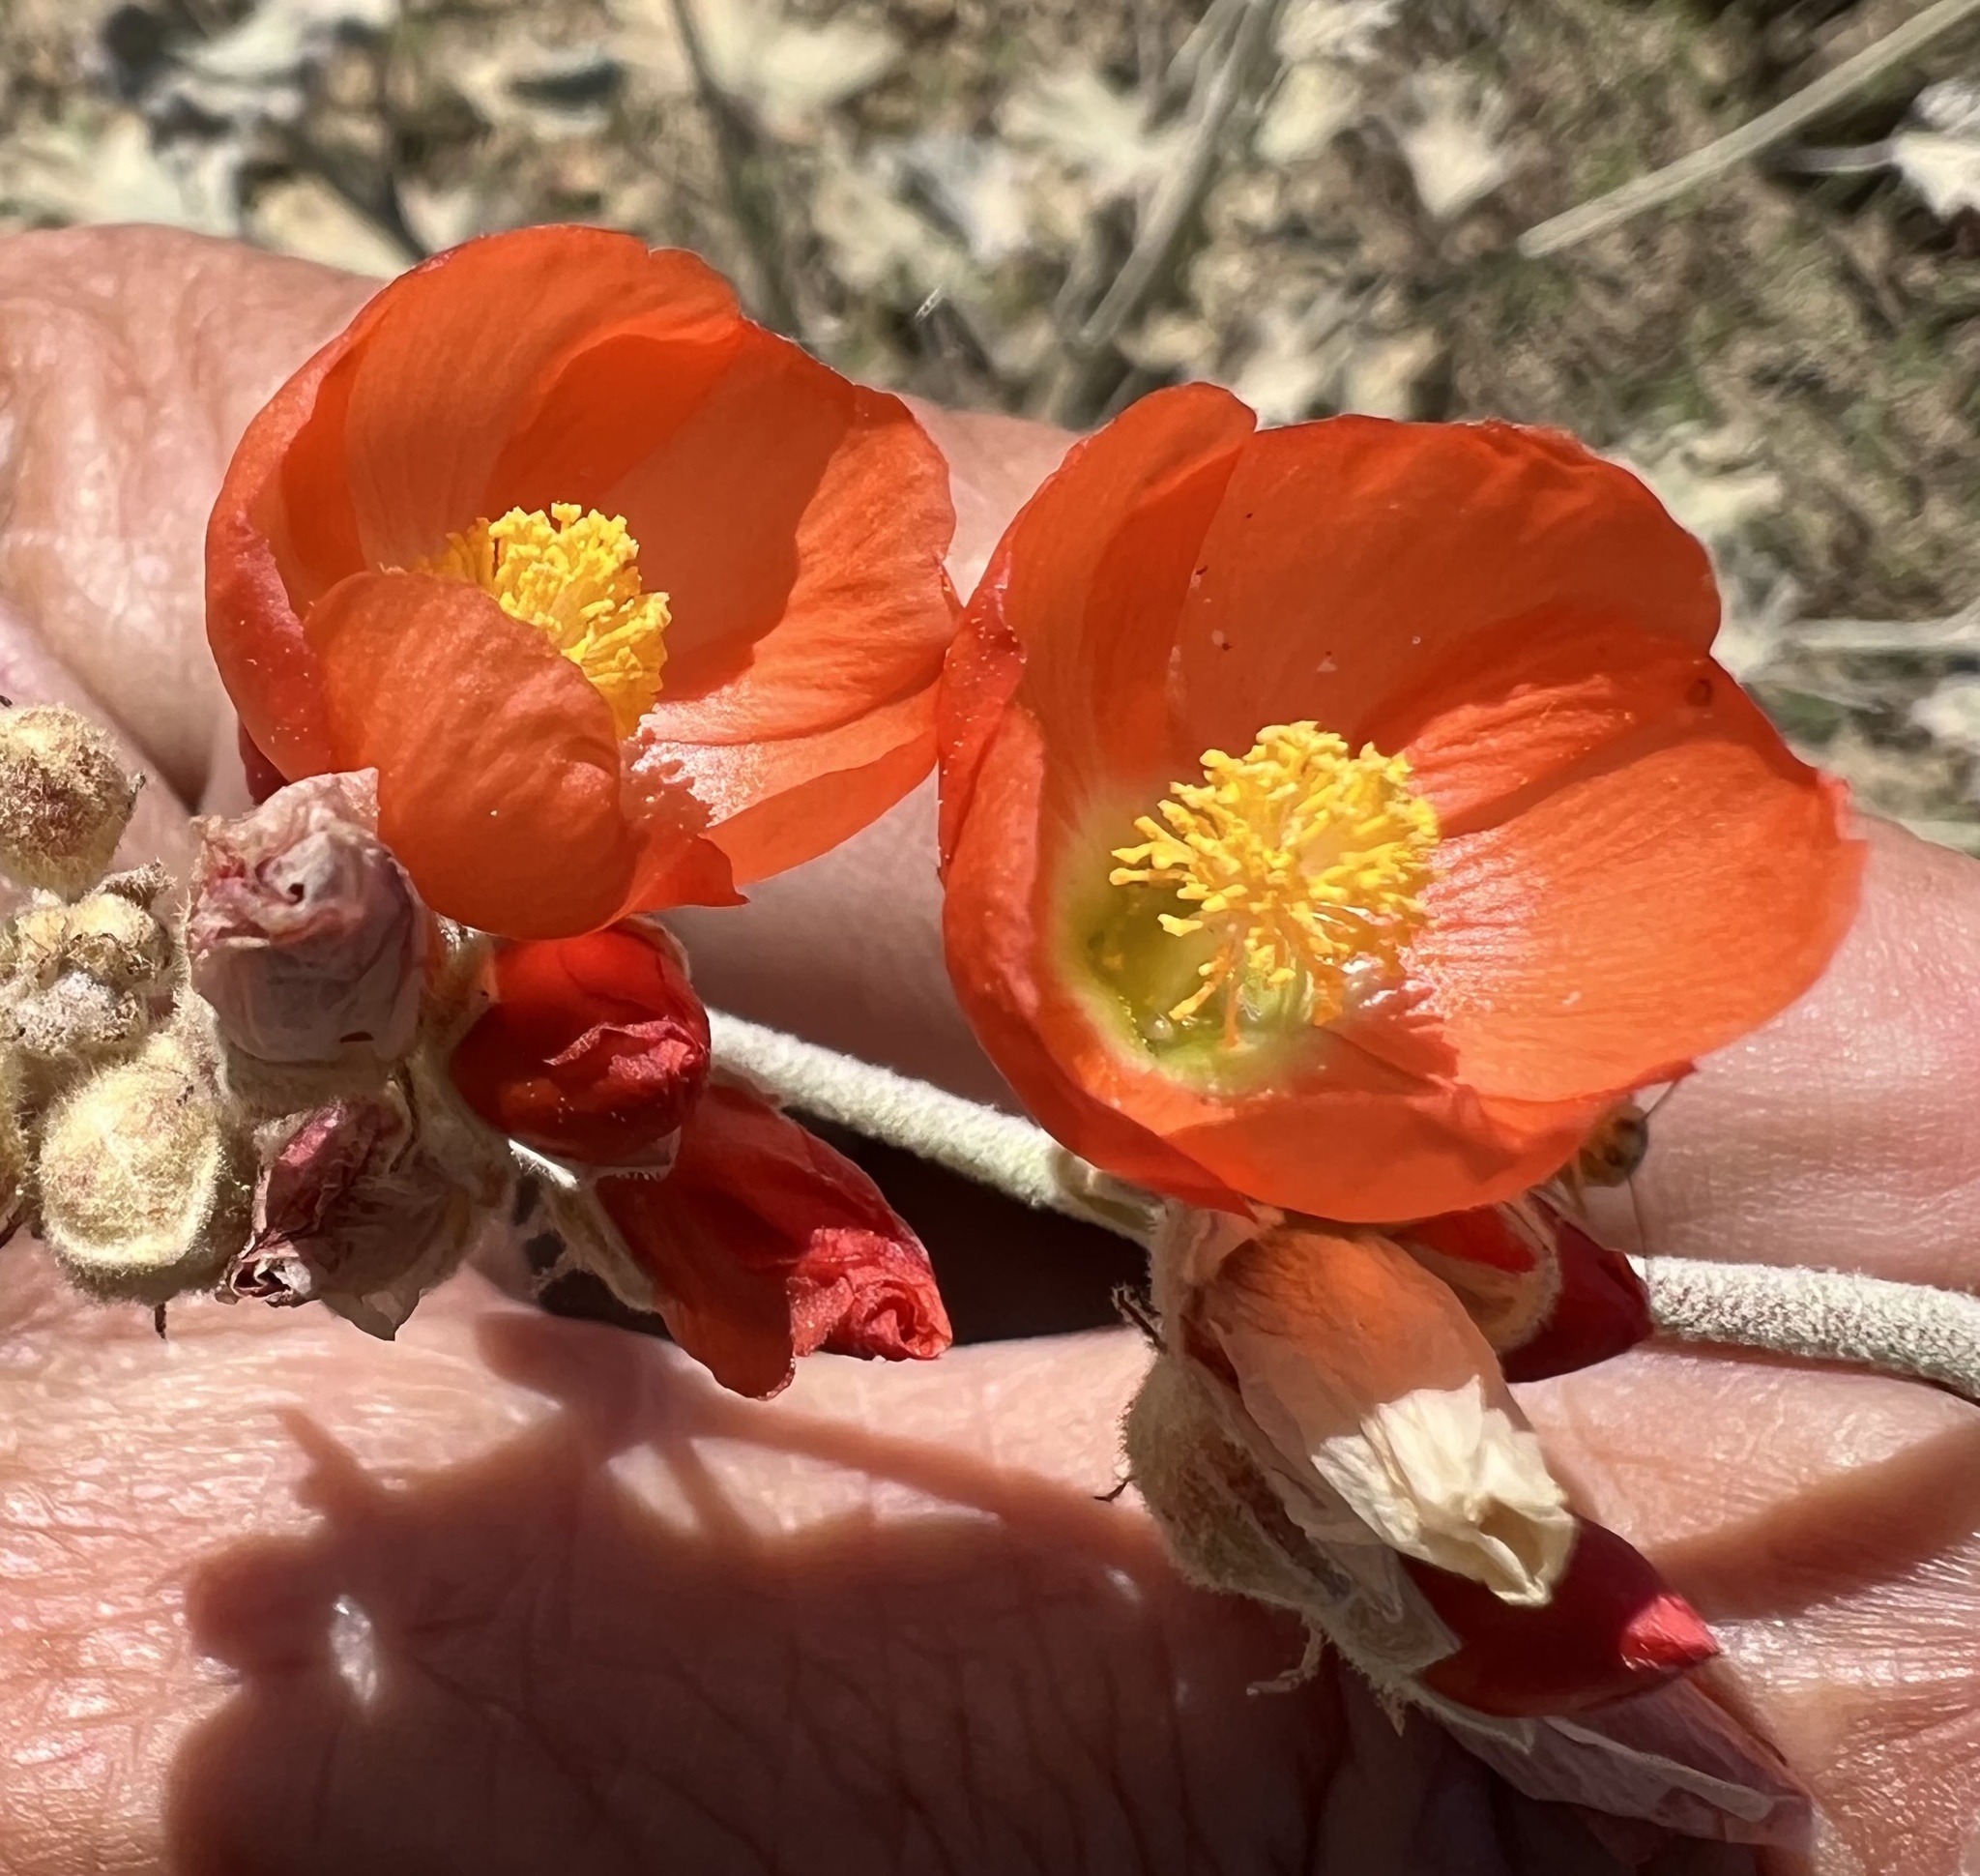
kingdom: Plantae
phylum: Tracheophyta
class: Magnoliopsida
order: Malvales
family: Malvaceae
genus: Sphaeralcea
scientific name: Sphaeralcea ambigua
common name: Apricot globe-mallow
